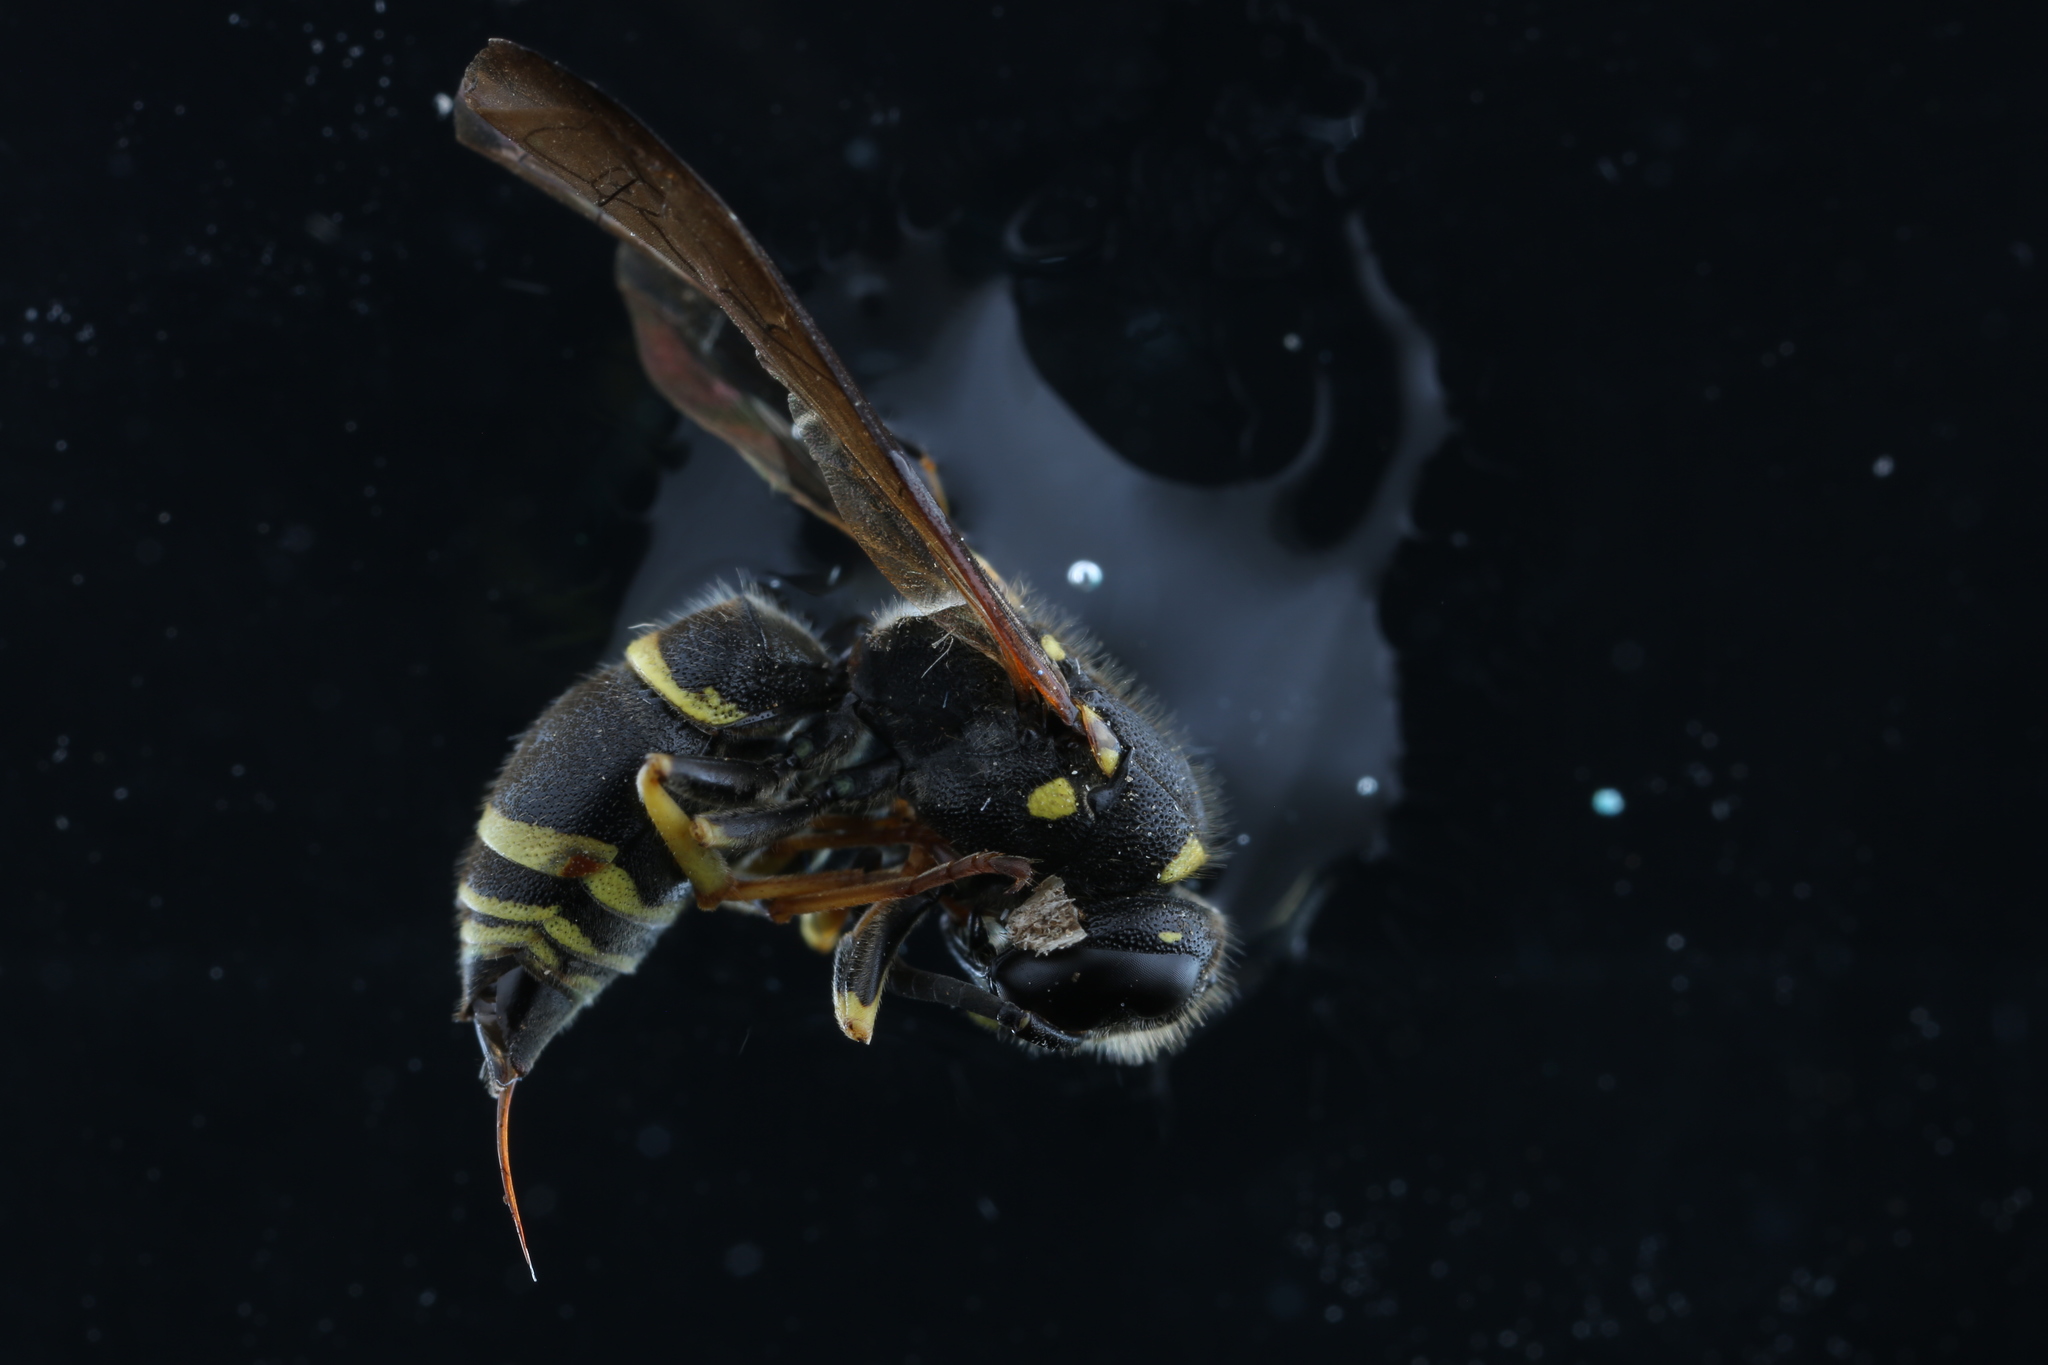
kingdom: Animalia
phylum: Arthropoda
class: Insecta
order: Hymenoptera
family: Vespidae
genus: Ancistrocerus
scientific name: Ancistrocerus adiabatus
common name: Bramble mason wasp
